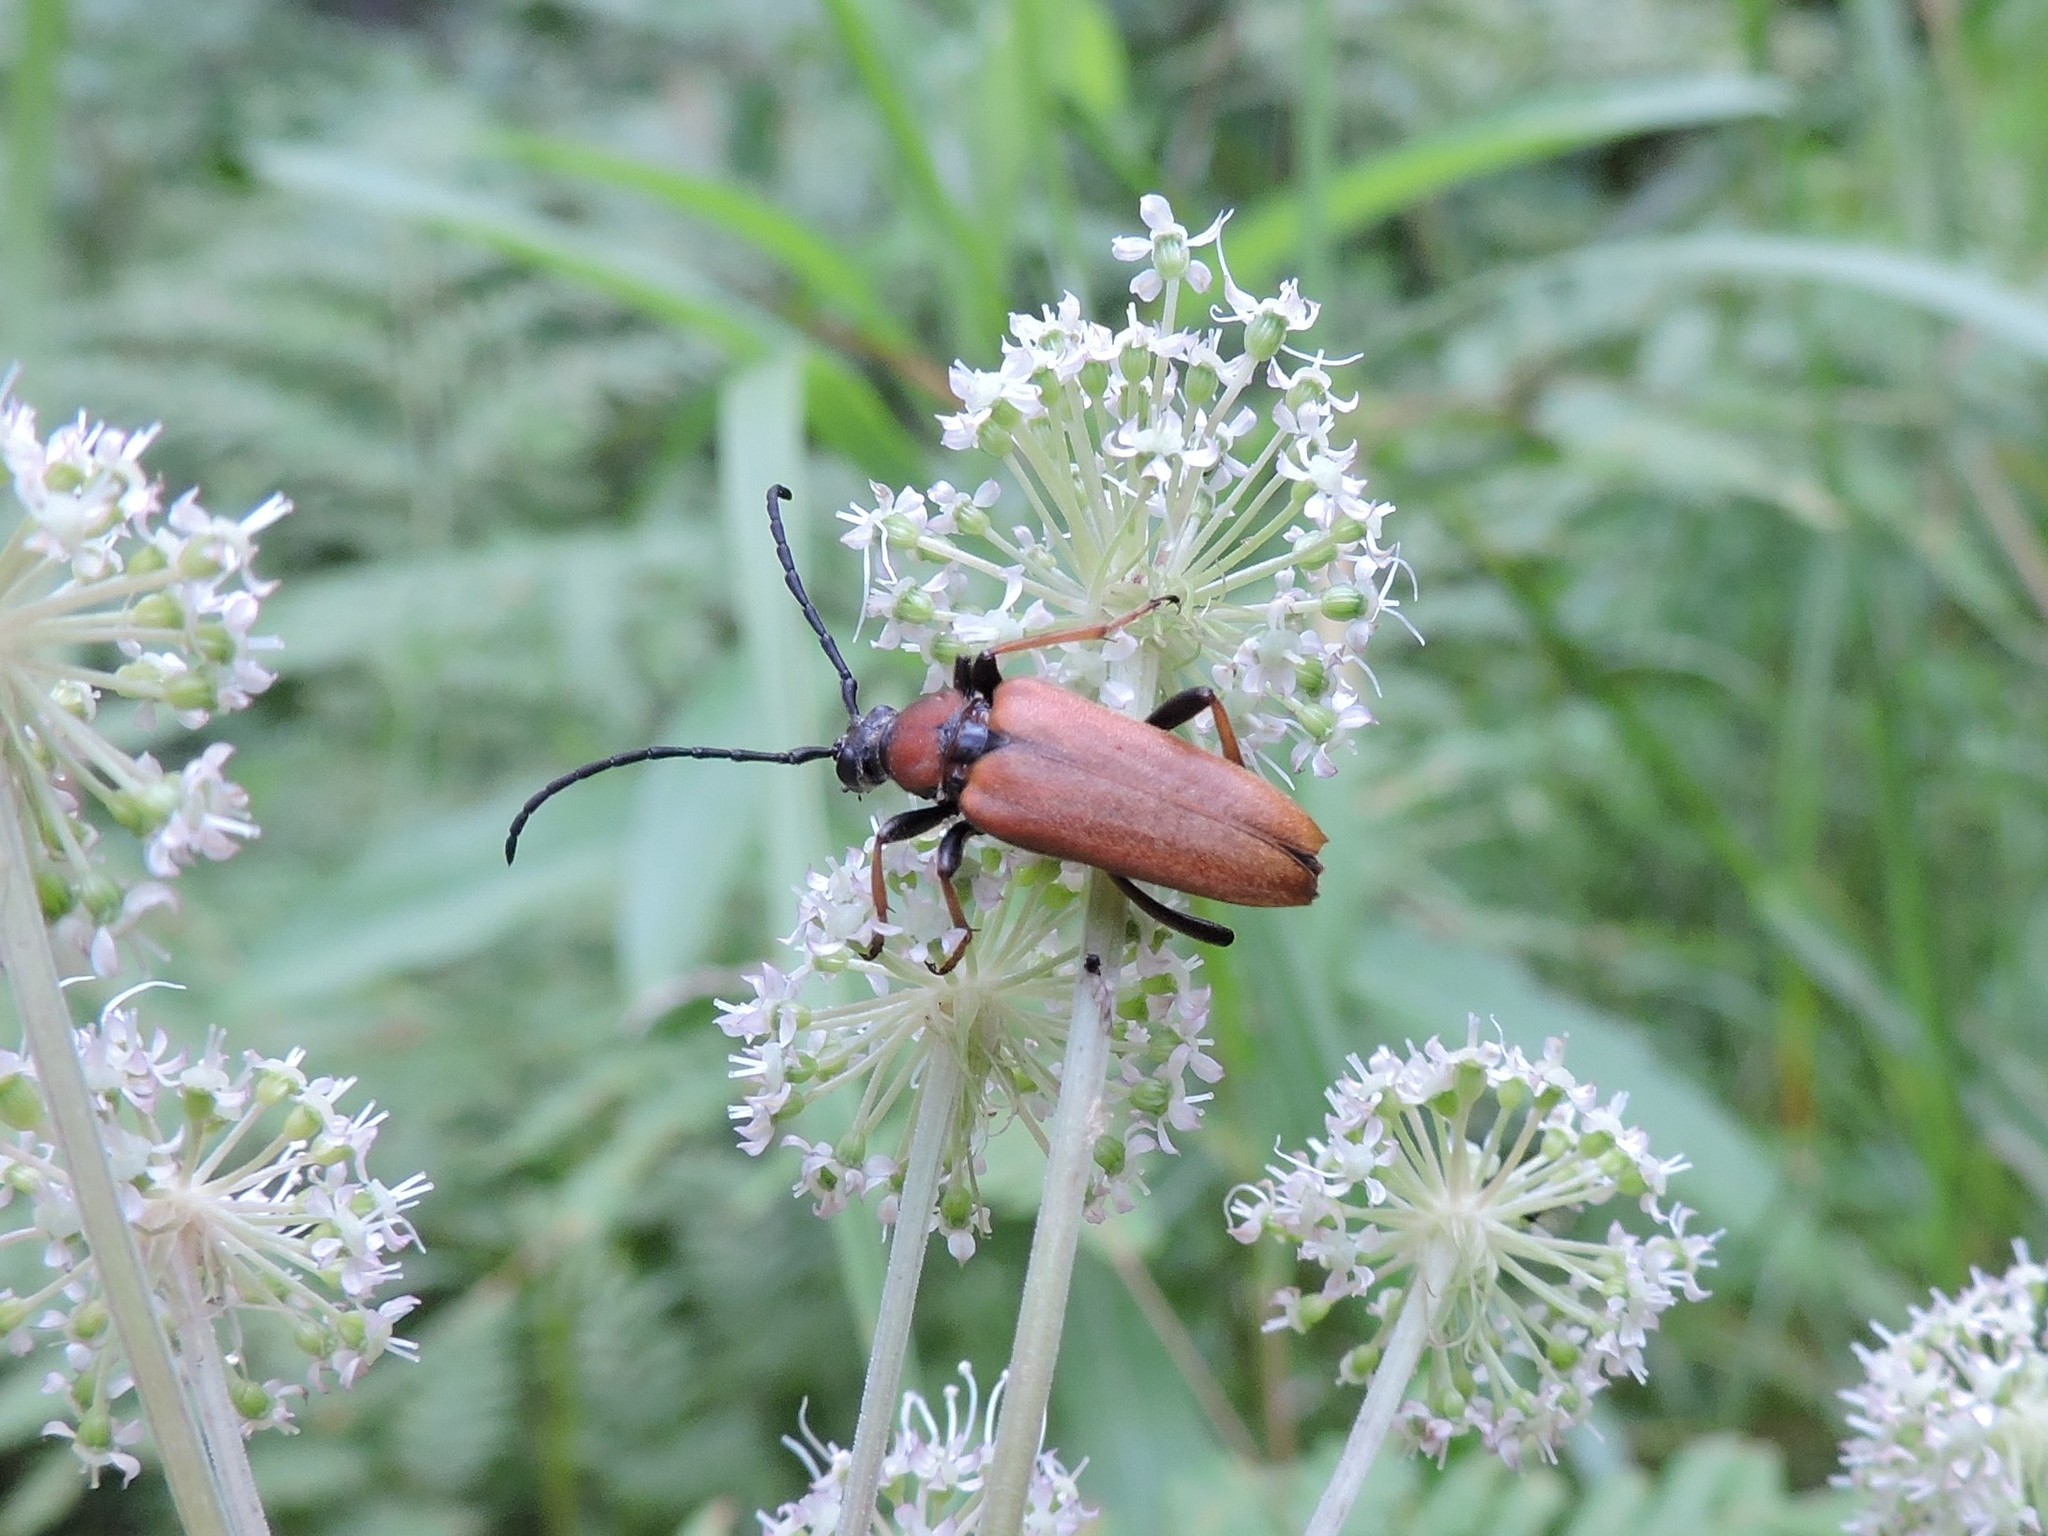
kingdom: Animalia
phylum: Arthropoda
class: Insecta
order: Coleoptera
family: Cerambycidae
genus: Stictoleptura
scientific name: Stictoleptura rubra
